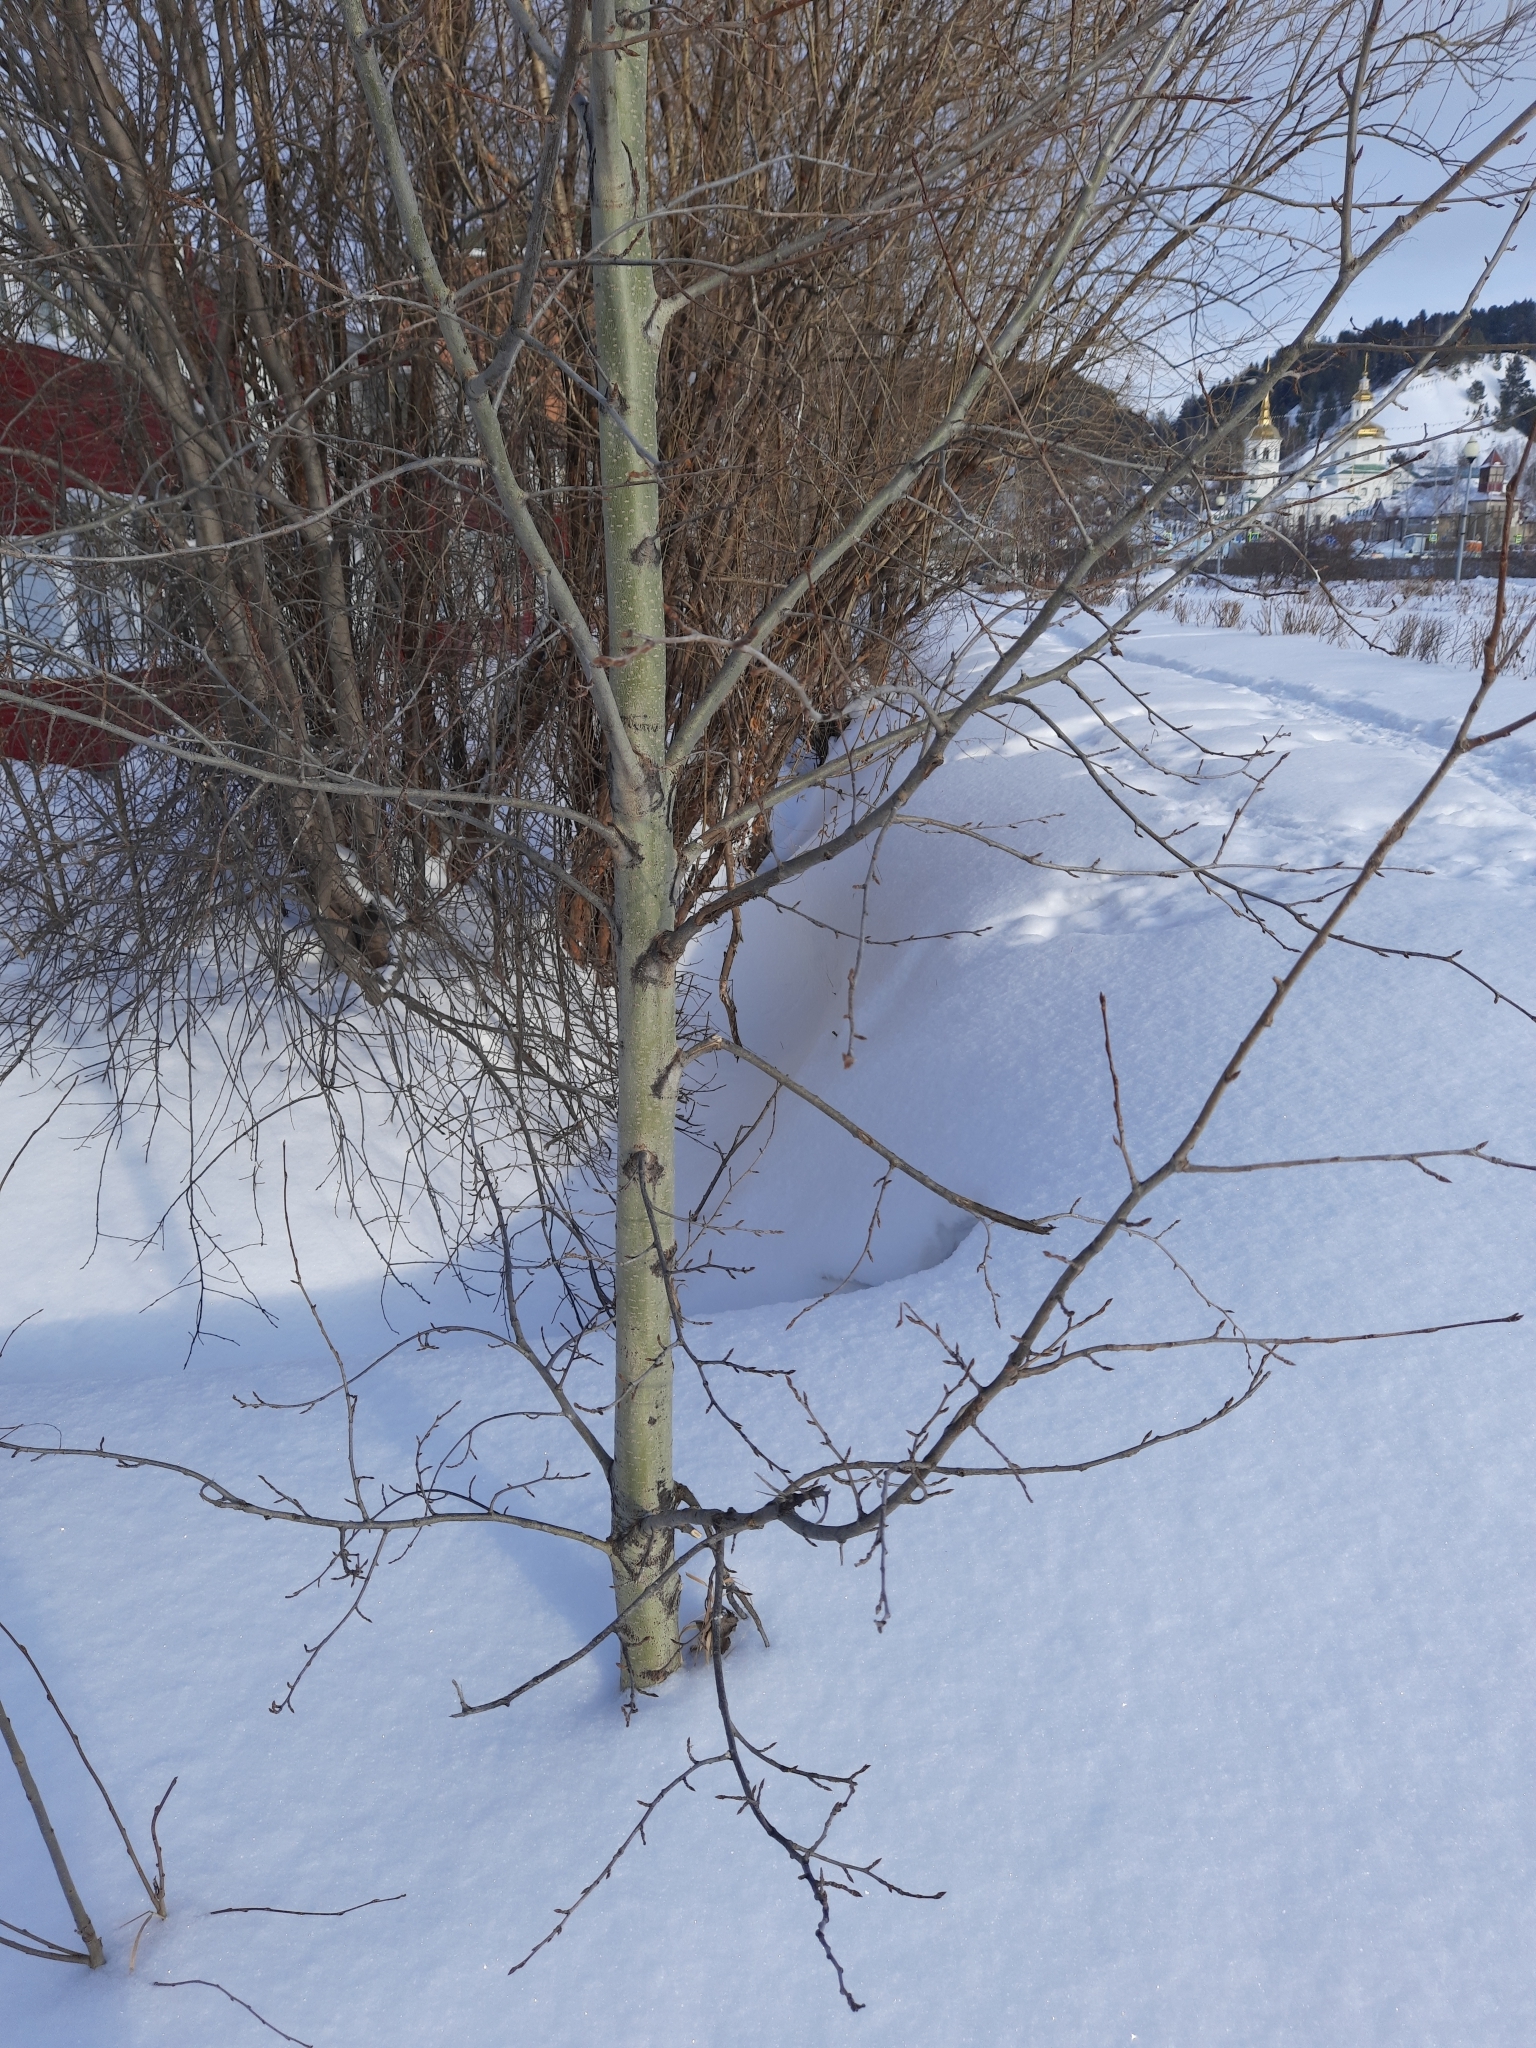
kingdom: Plantae
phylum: Tracheophyta
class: Magnoliopsida
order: Malpighiales
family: Salicaceae
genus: Populus
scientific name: Populus tremula
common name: European aspen
